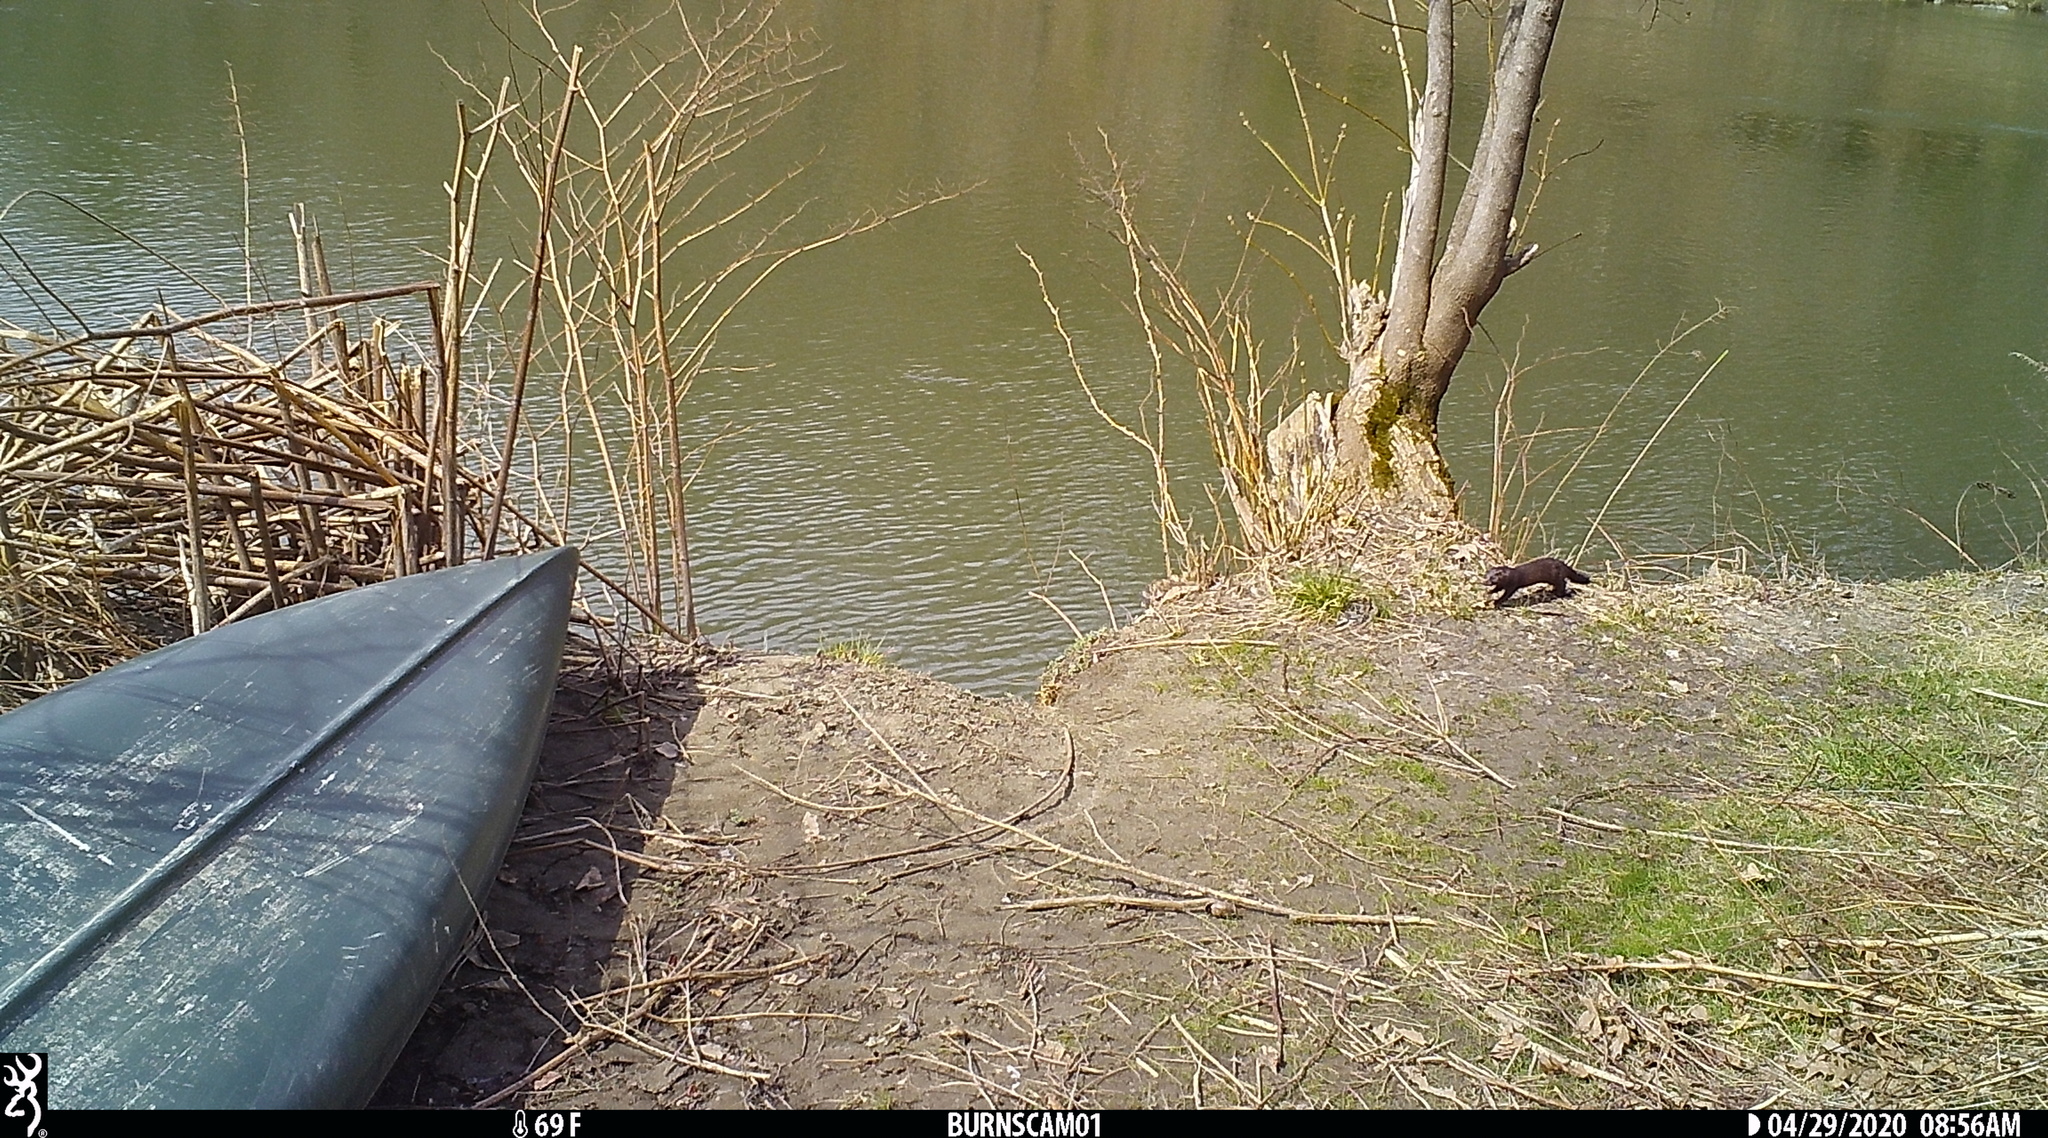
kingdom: Animalia
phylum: Chordata
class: Mammalia
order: Carnivora
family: Mustelidae
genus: Mustela
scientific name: Mustela
